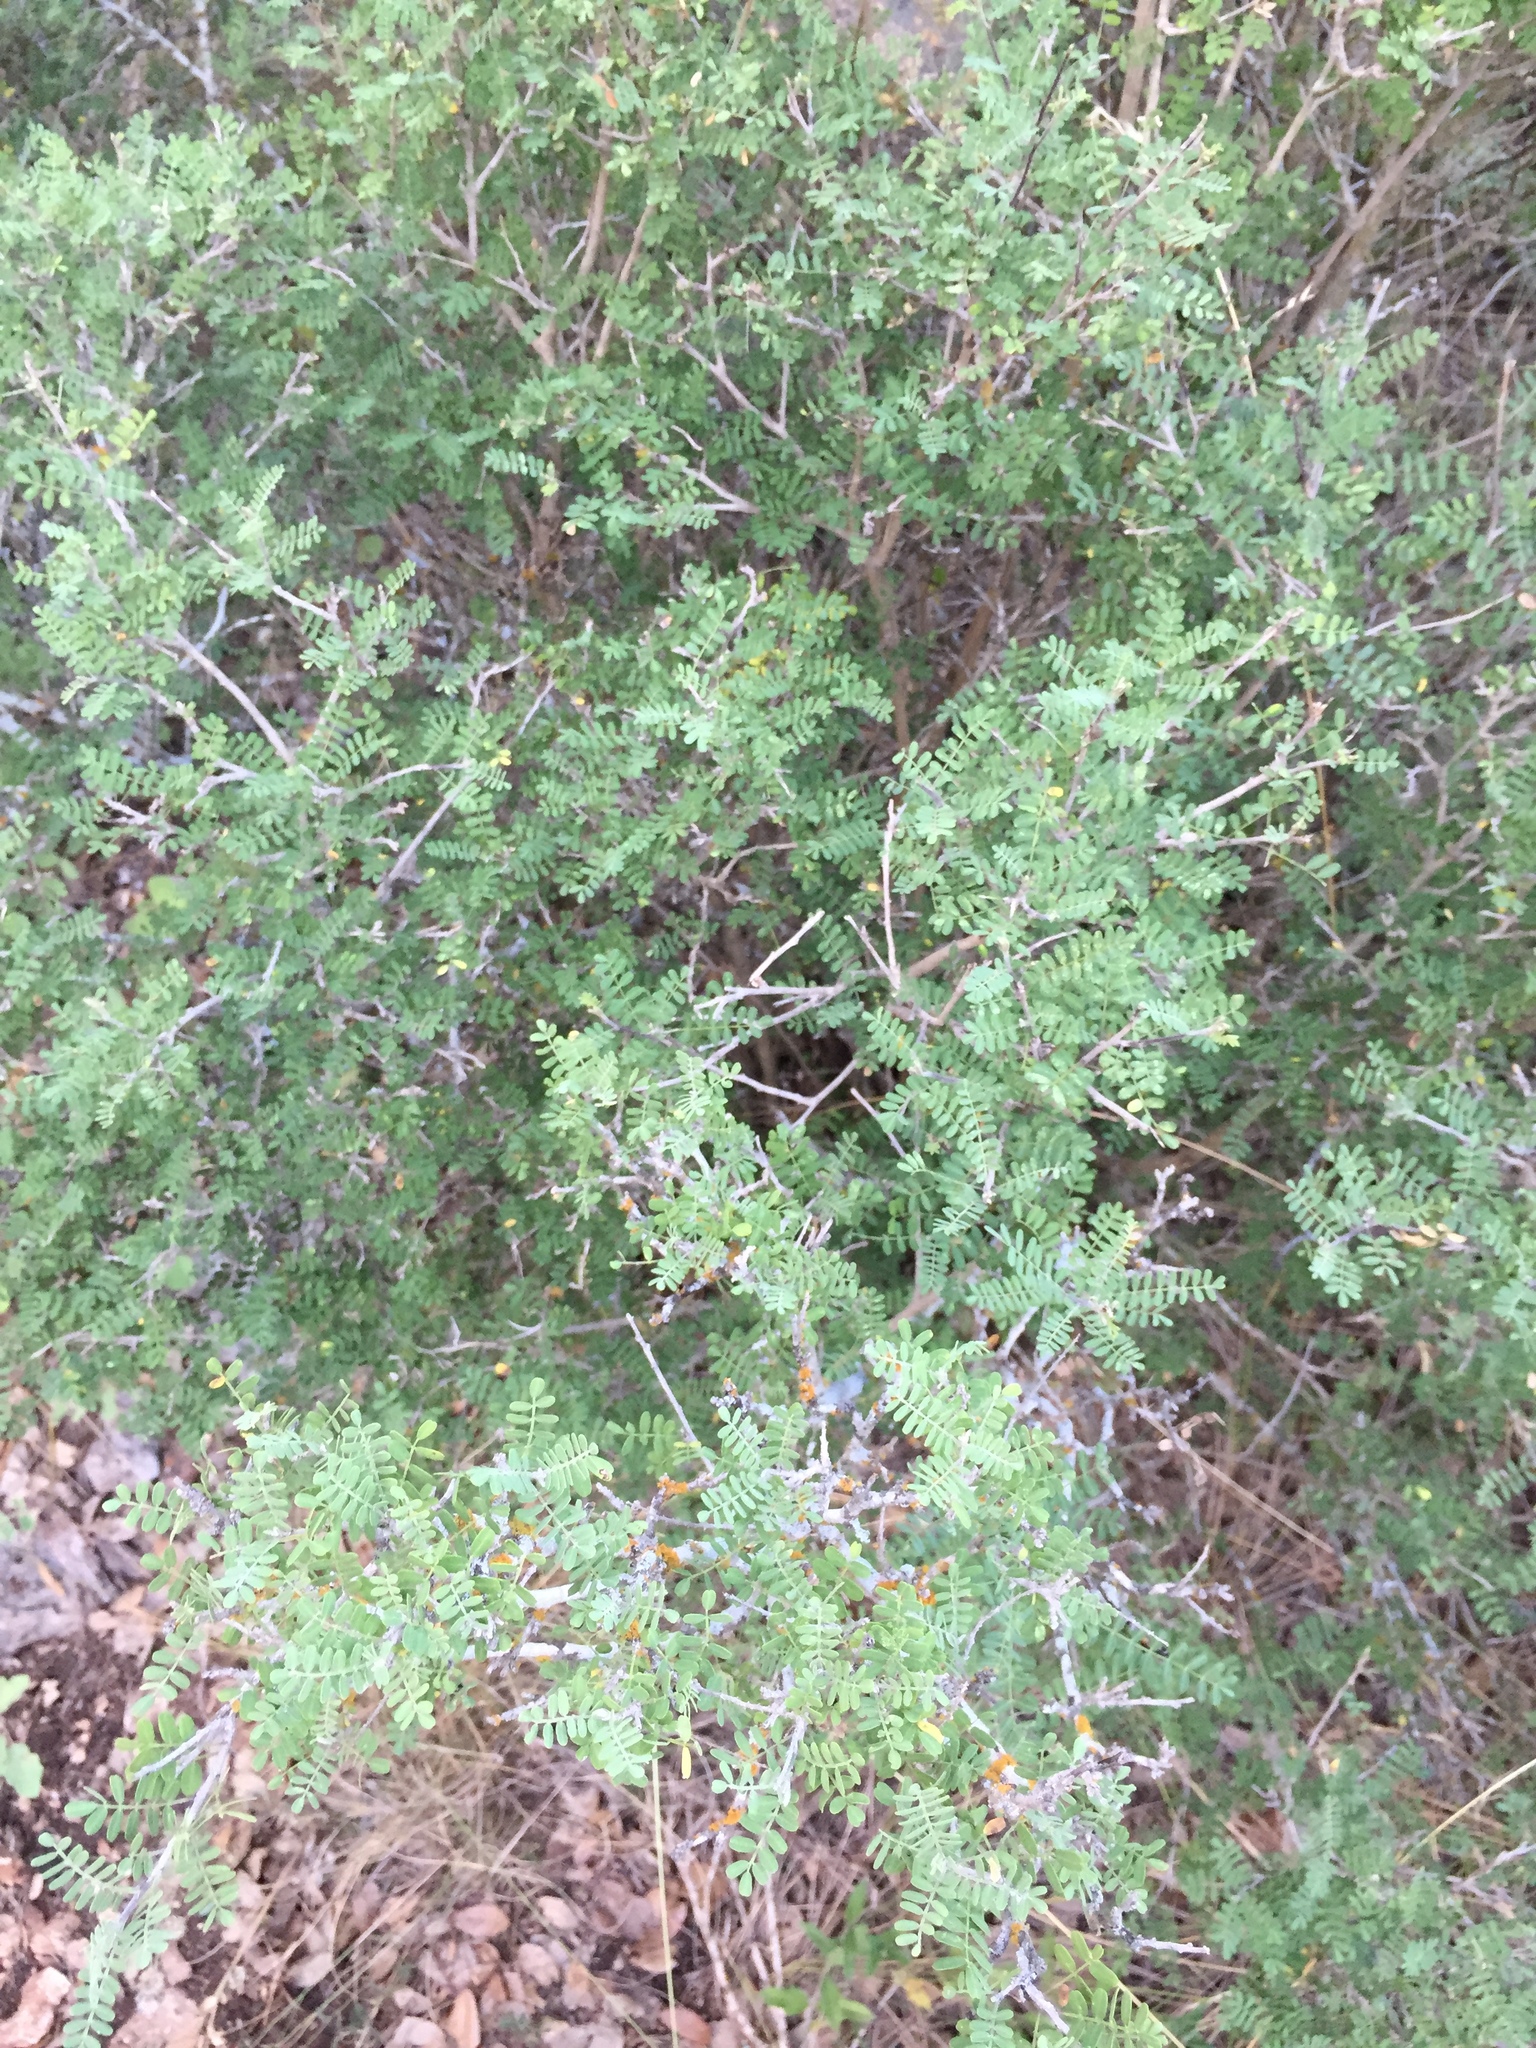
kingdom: Plantae
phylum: Tracheophyta
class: Magnoliopsida
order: Fabales
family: Fabaceae
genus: Eysenhardtia
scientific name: Eysenhardtia texana
